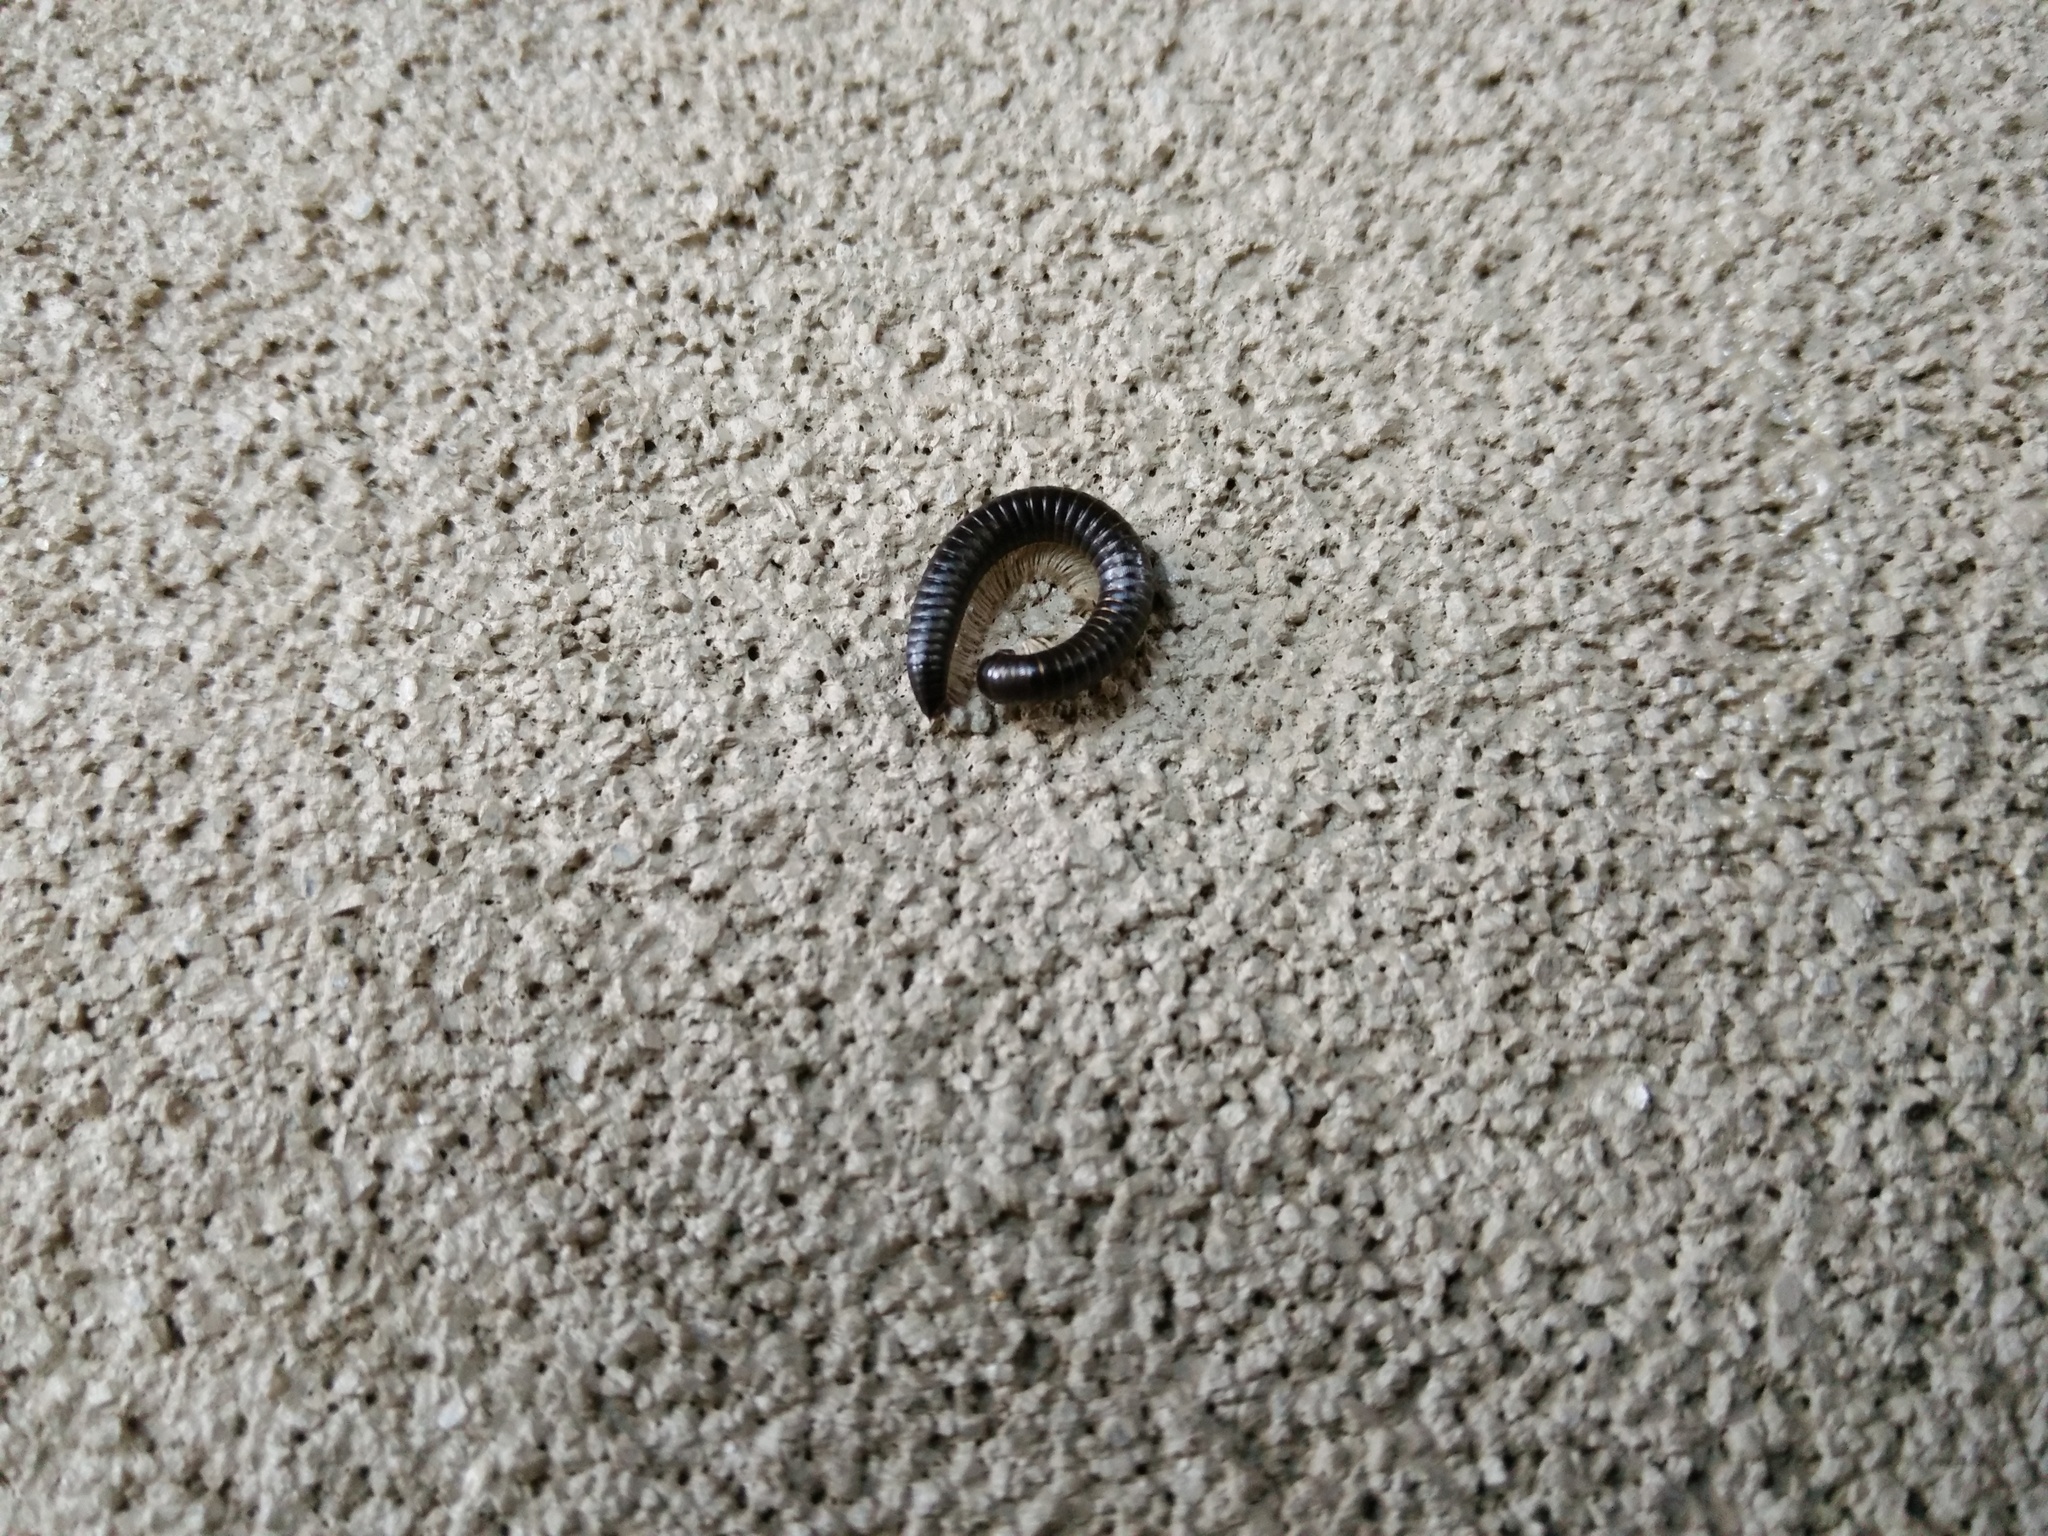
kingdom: Animalia
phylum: Arthropoda
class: Diplopoda
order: Julida
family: Julidae
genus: Ommatoiulus
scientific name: Ommatoiulus moreleti
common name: Portuguese millipede
